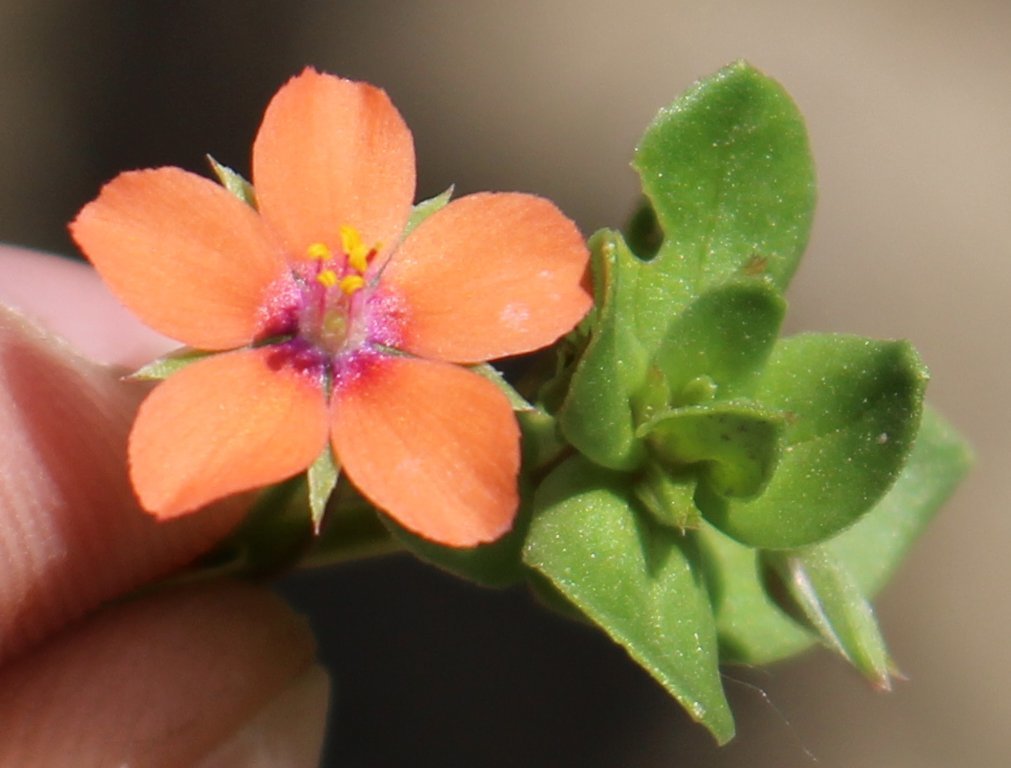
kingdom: Plantae
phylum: Tracheophyta
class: Magnoliopsida
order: Ericales
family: Primulaceae
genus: Lysimachia
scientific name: Lysimachia arvensis
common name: Scarlet pimpernel
